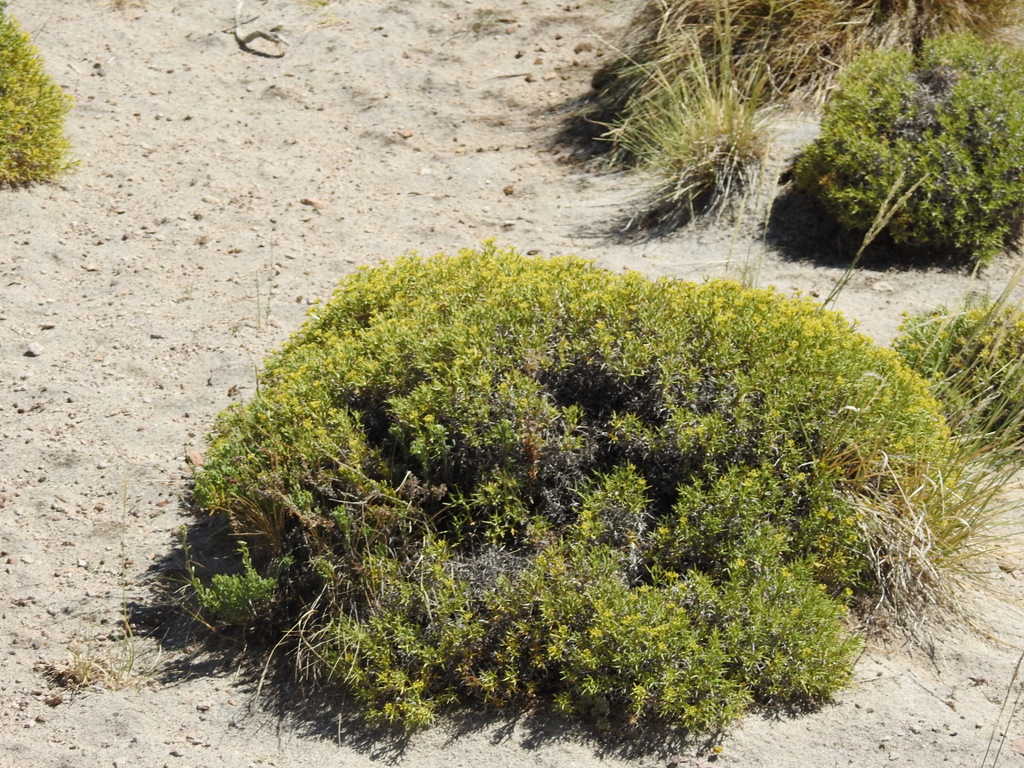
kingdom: Plantae
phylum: Tracheophyta
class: Magnoliopsida
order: Apiales
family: Apiaceae
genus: Azorella
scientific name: Azorella prolifera
